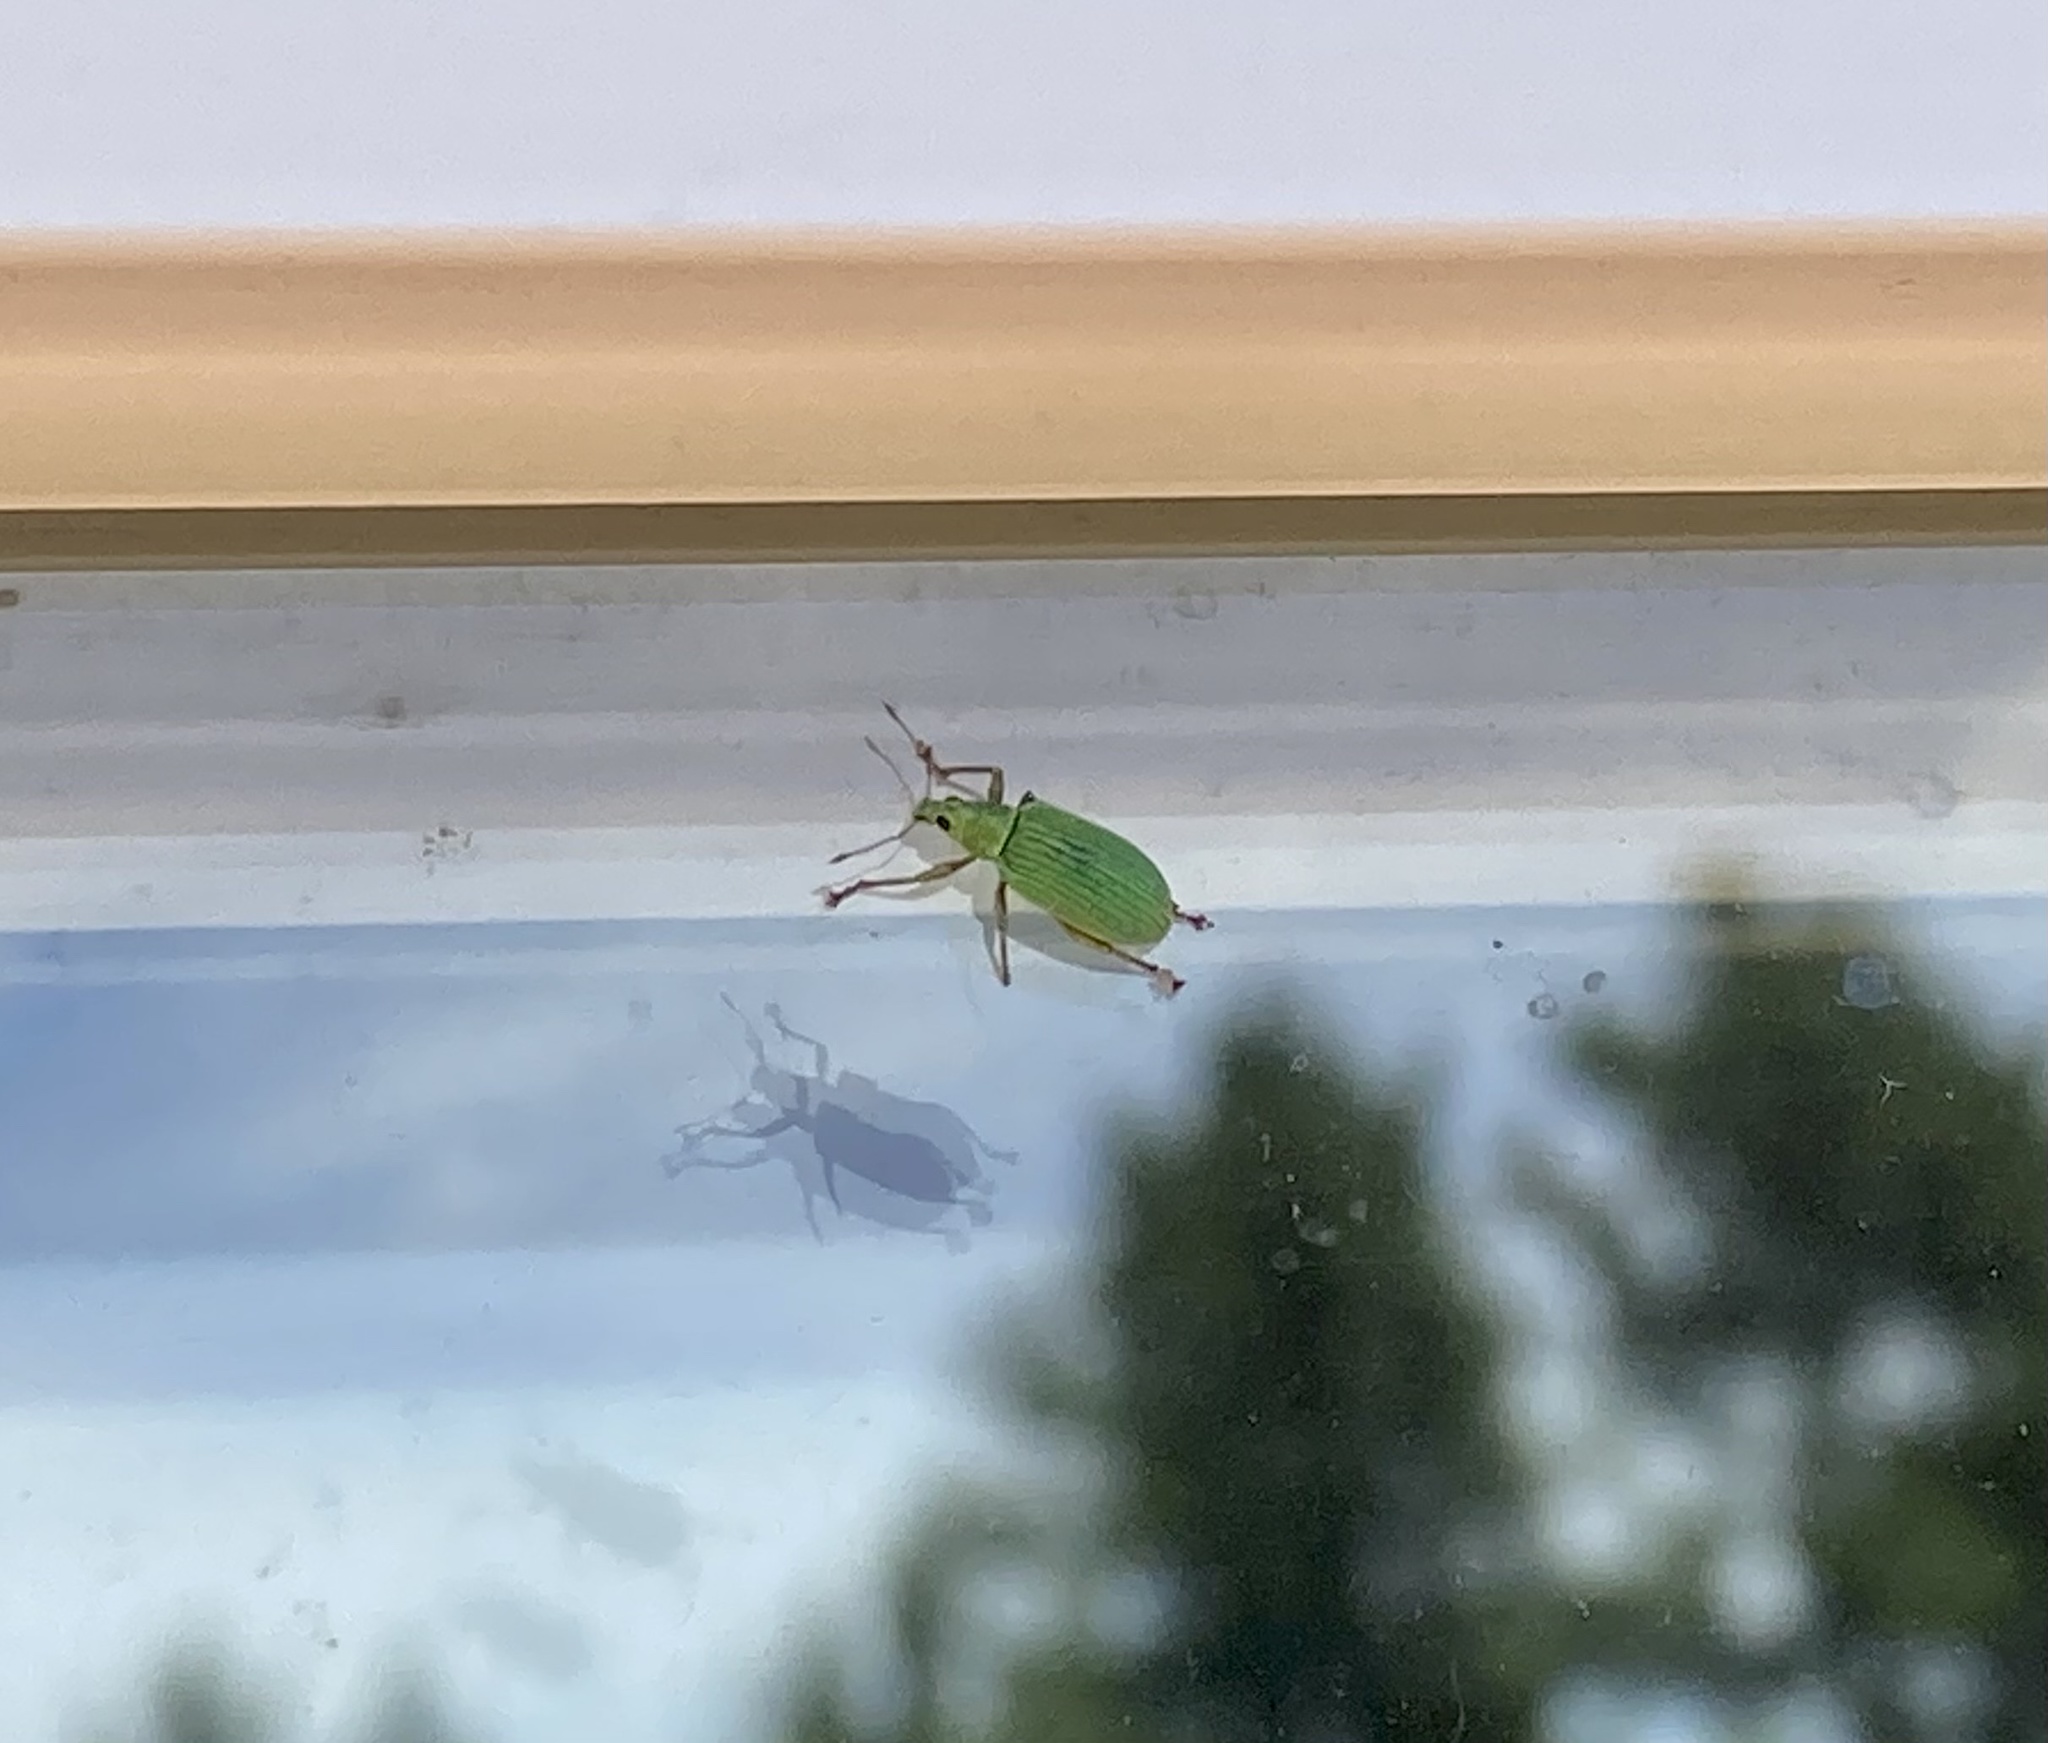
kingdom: Animalia
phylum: Arthropoda
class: Insecta
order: Coleoptera
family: Curculionidae
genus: Polydrusus
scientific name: Polydrusus formosus
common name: Weevil
